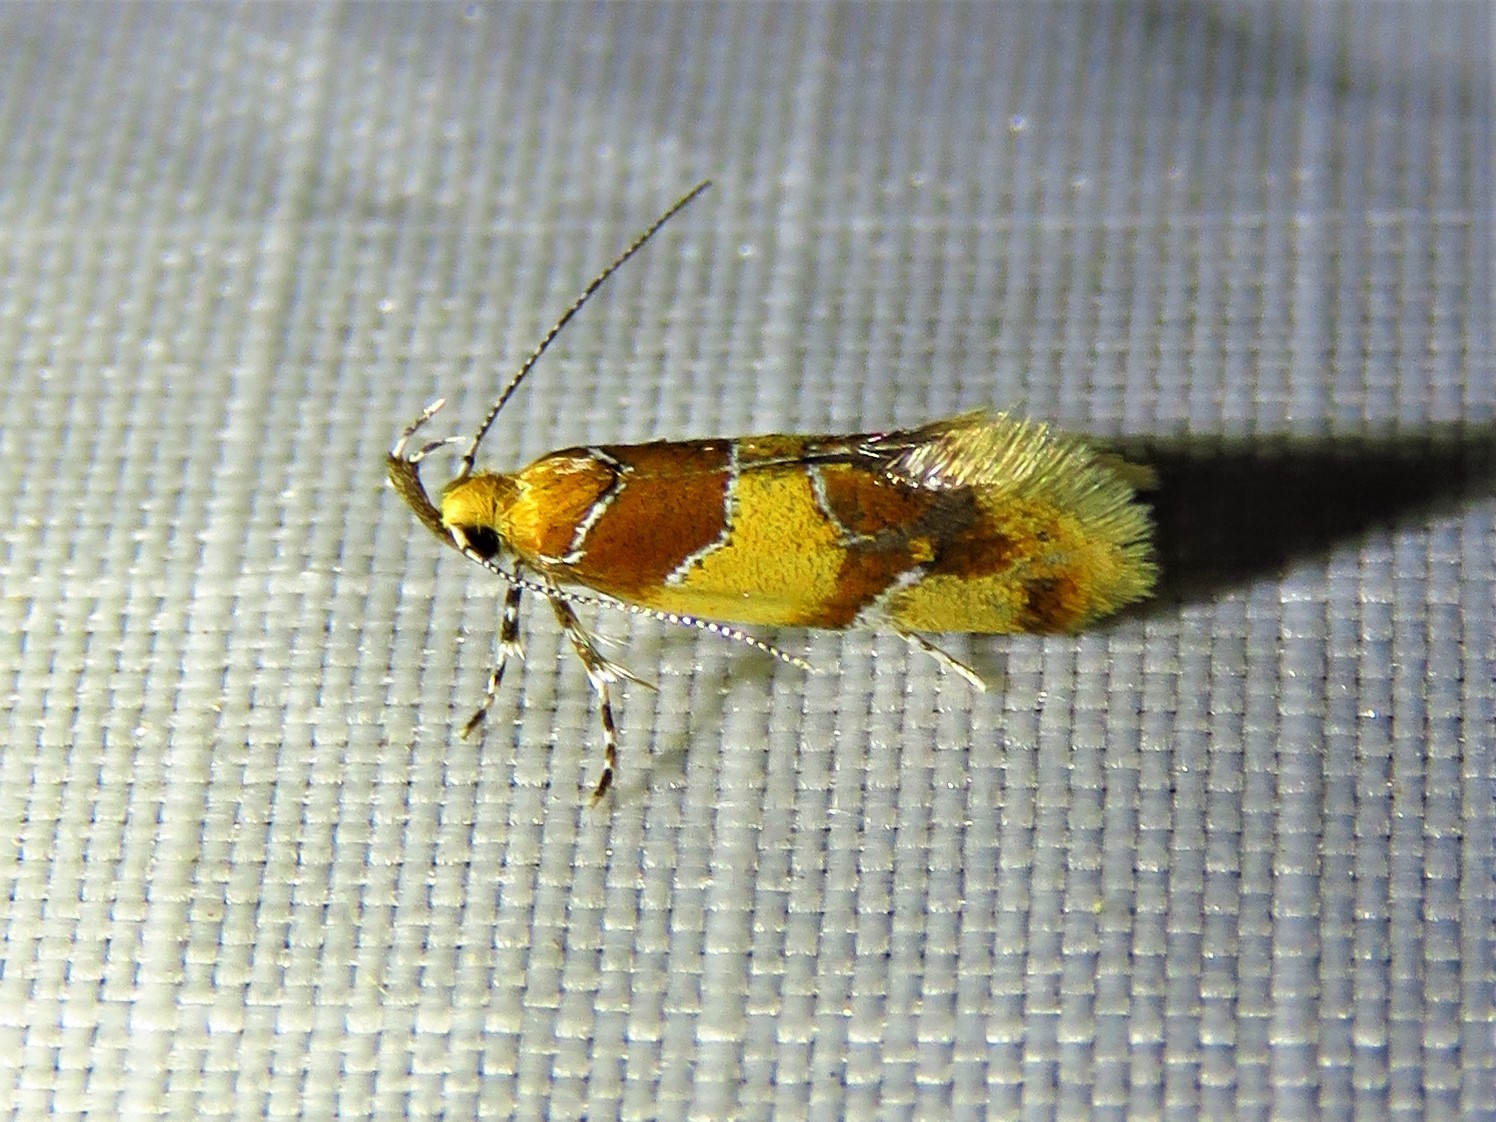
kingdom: Animalia
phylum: Arthropoda
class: Insecta
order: Lepidoptera
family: Oecophoridae
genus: Callima
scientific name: Callima argenticinctella
